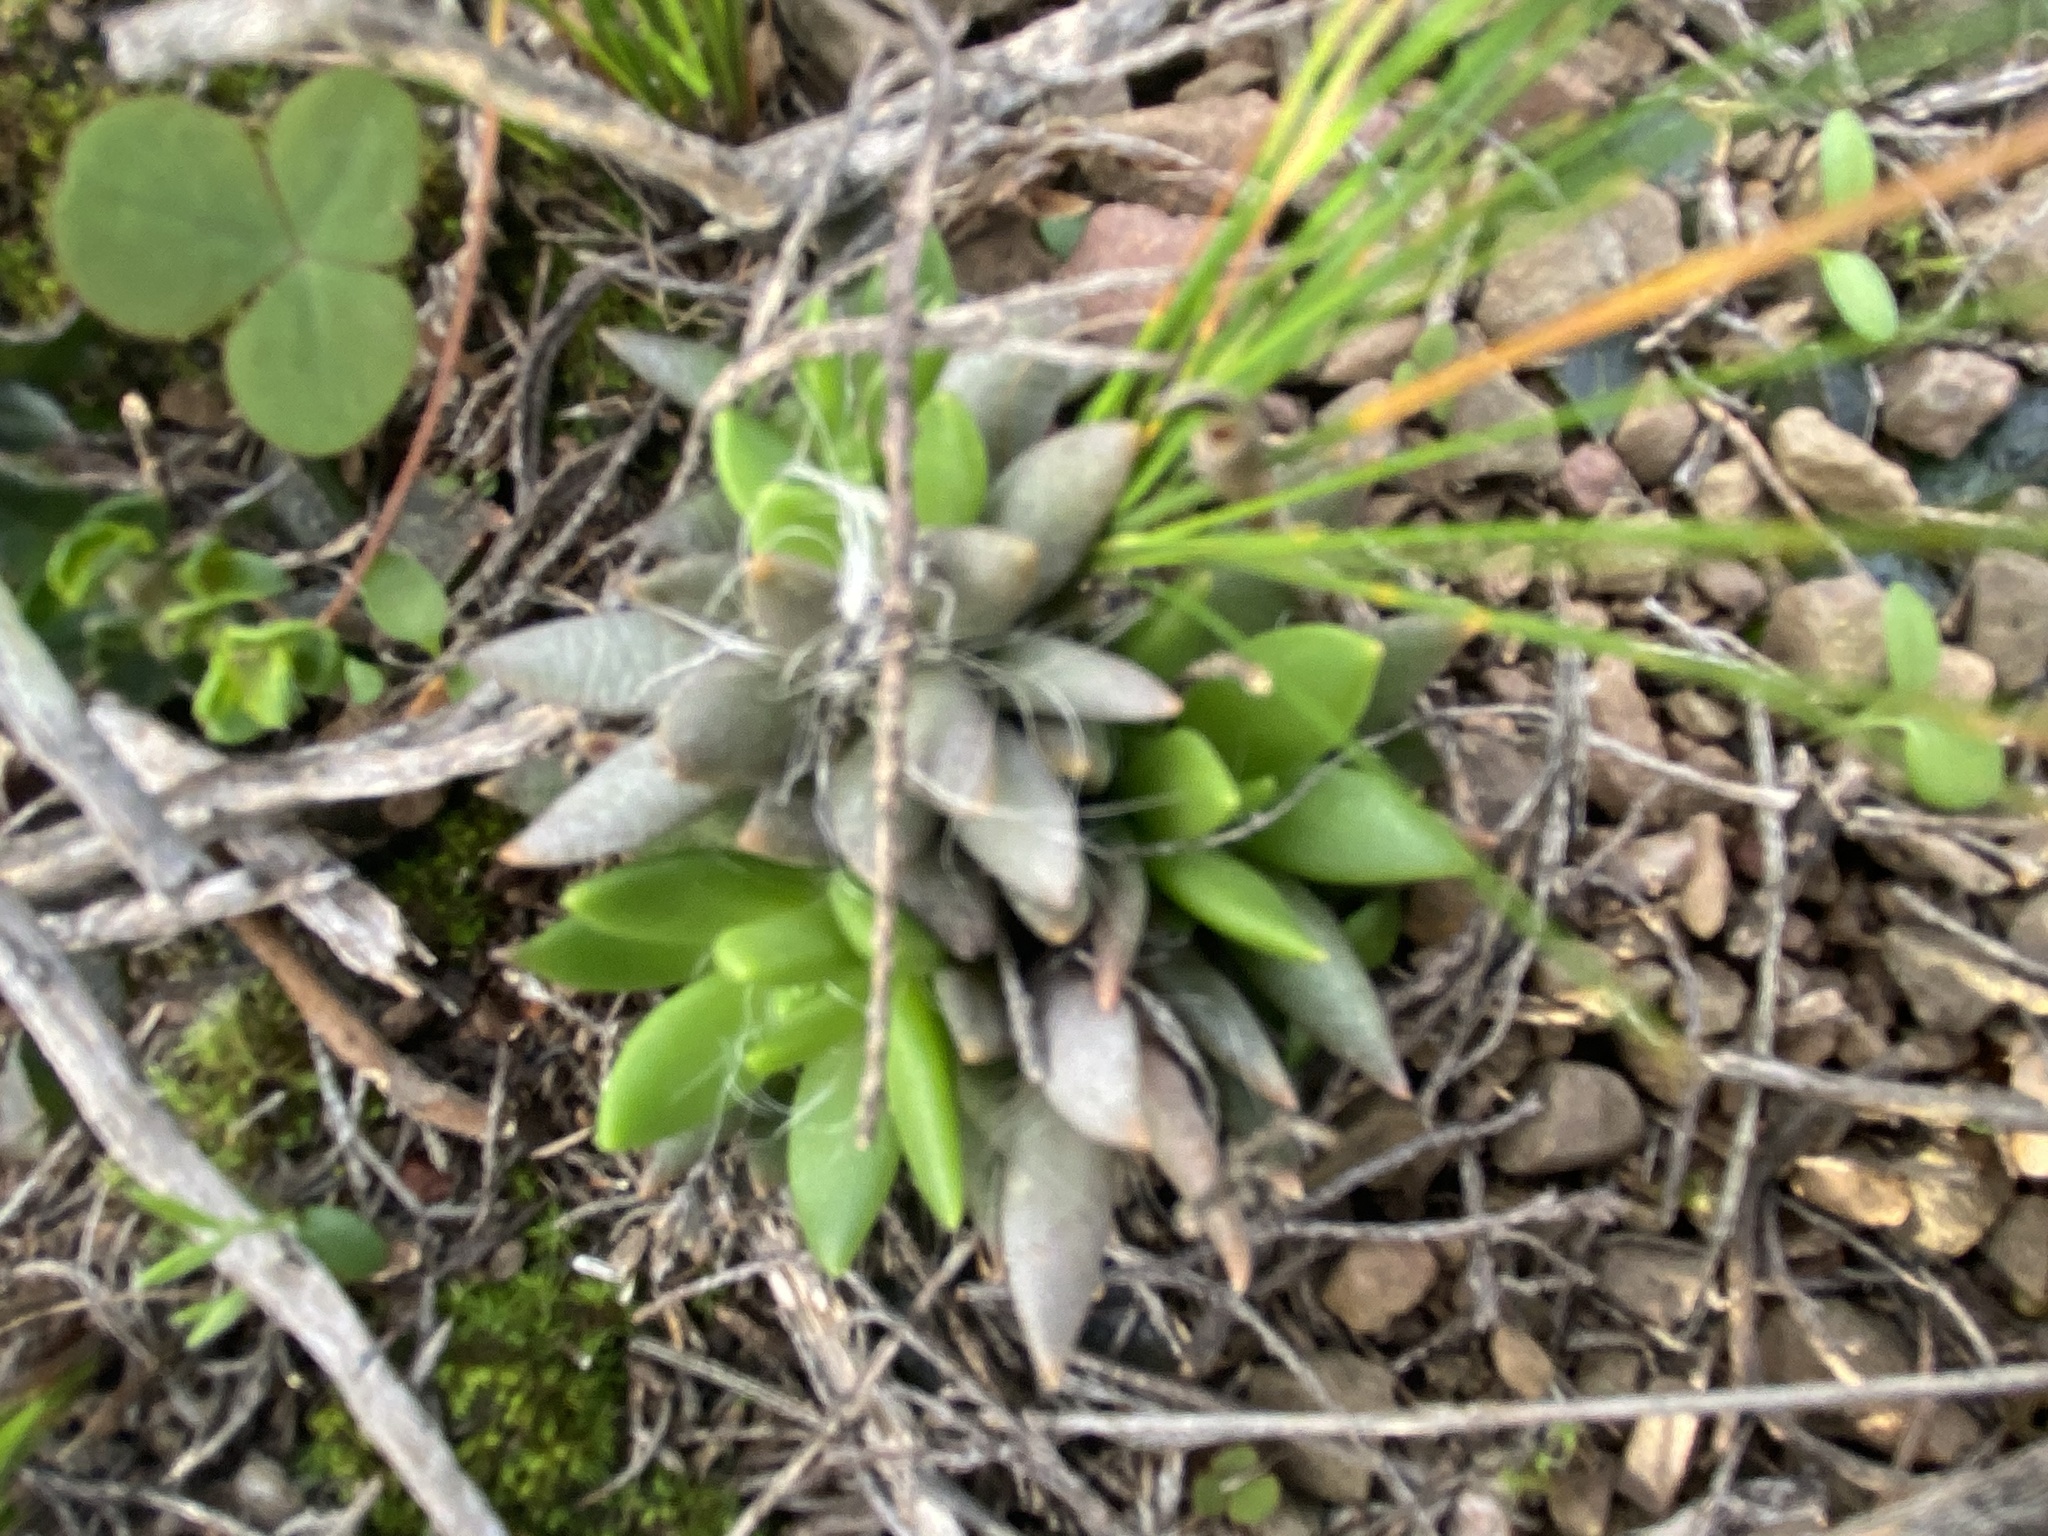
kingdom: Plantae
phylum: Tracheophyta
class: Magnoliopsida
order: Caryophyllales
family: Anacampserotaceae
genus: Anacampseros
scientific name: Anacampseros lanceolata
